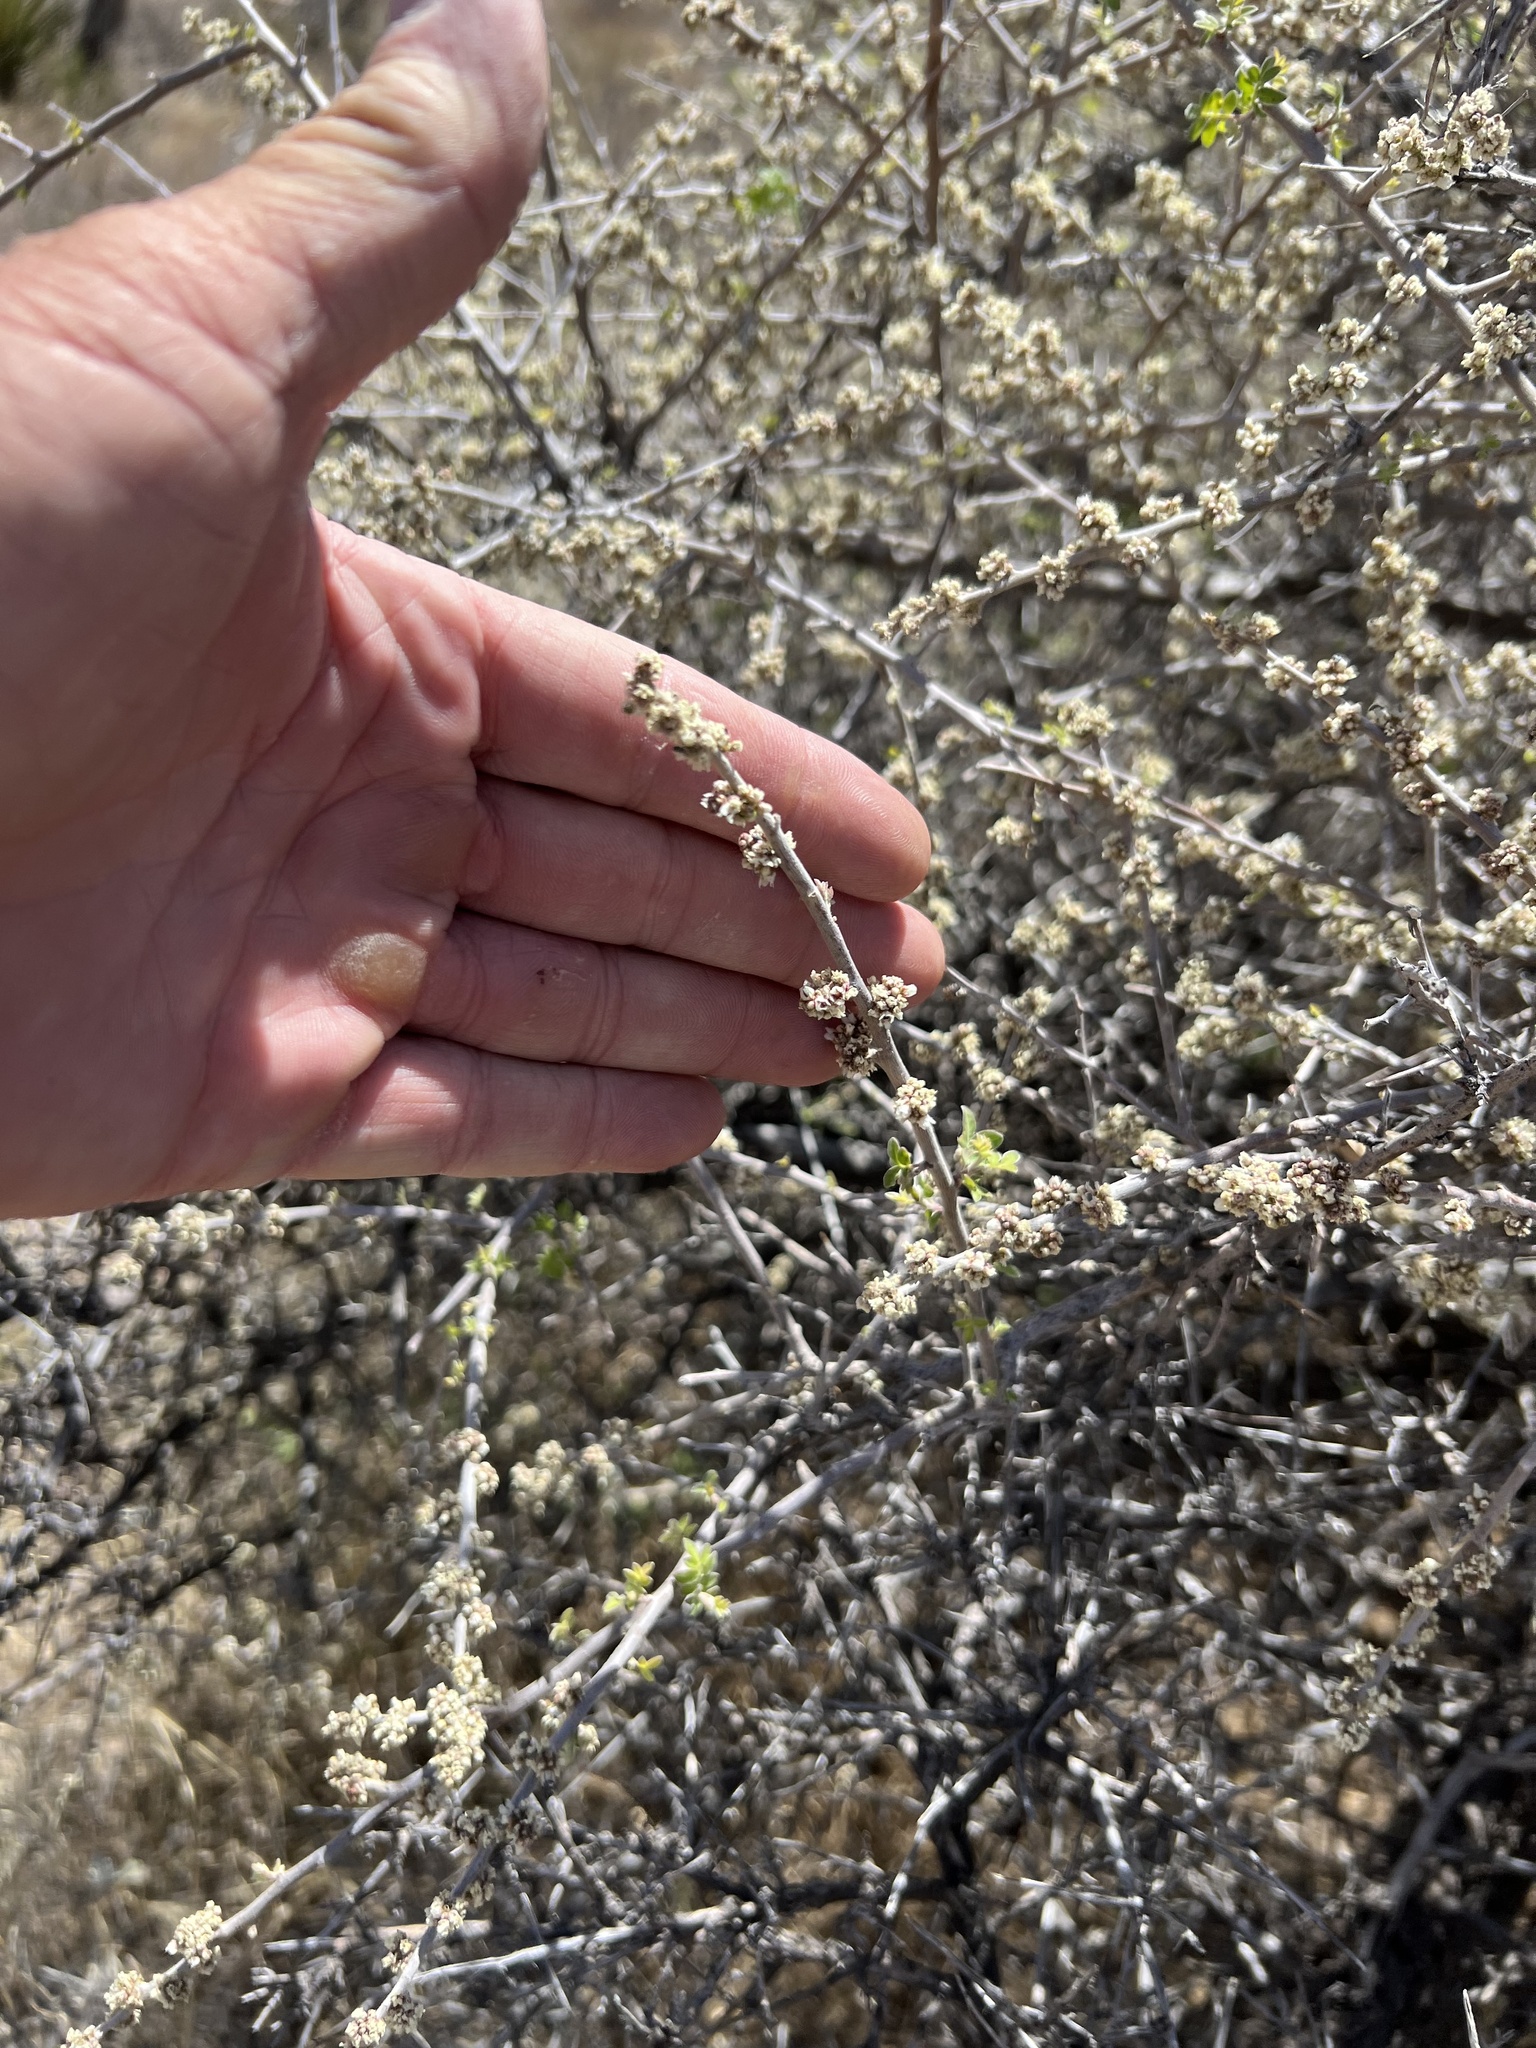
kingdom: Plantae
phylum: Tracheophyta
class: Magnoliopsida
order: Sapindales
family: Anacardiaceae
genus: Rhus
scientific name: Rhus microphylla
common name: Desert sumac
